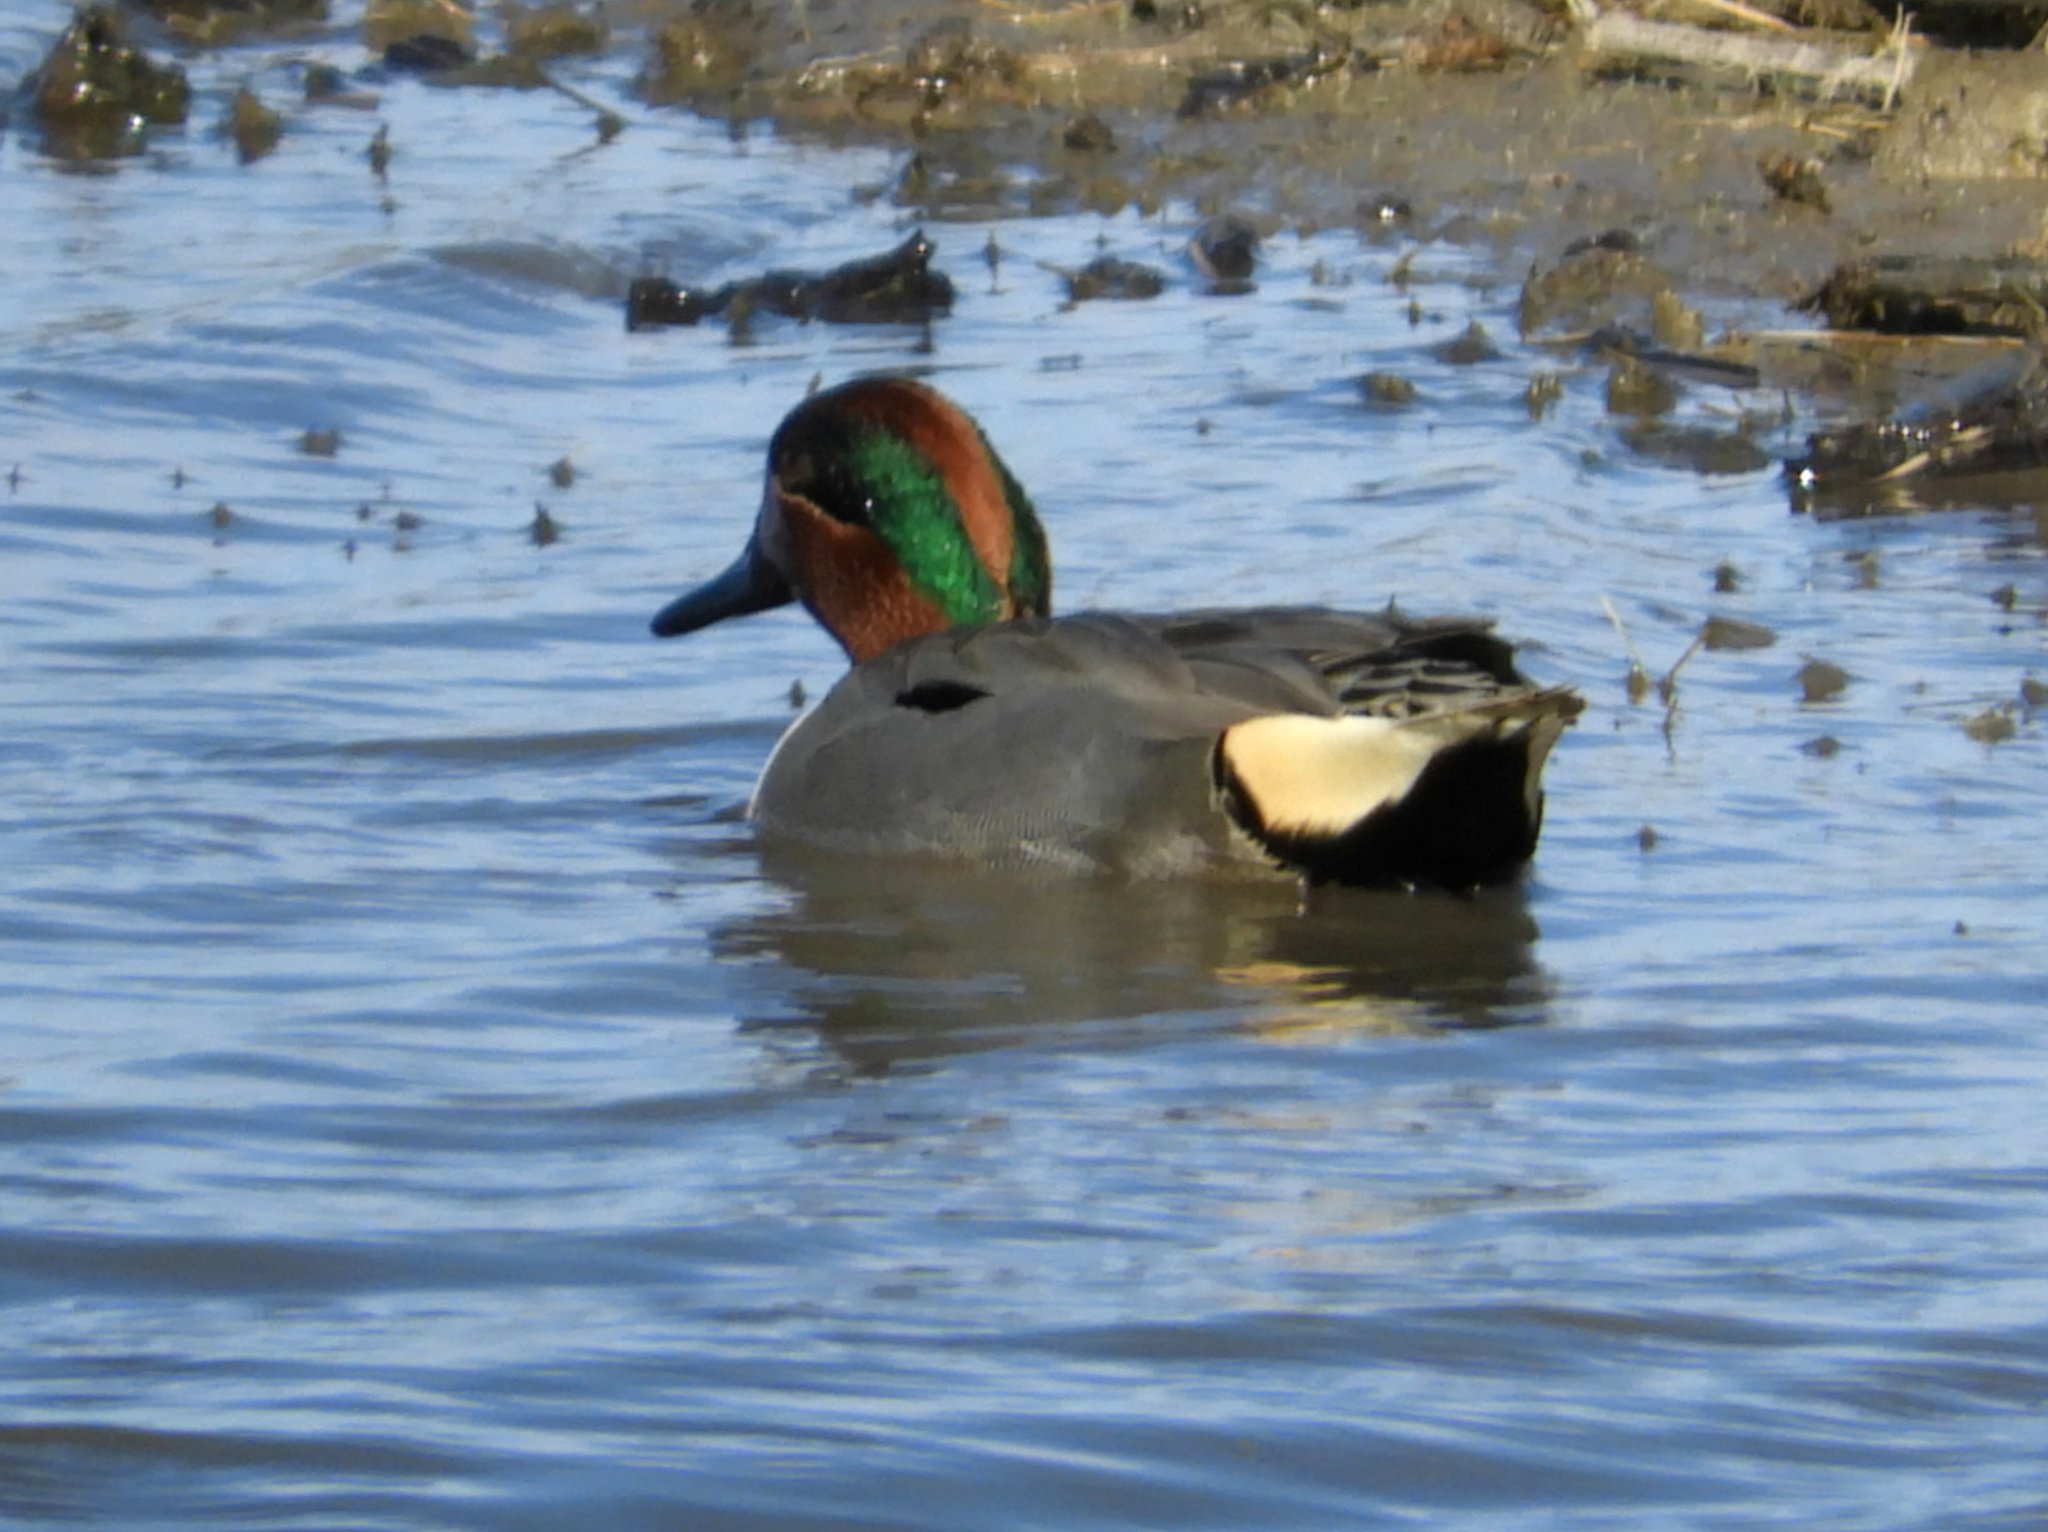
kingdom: Animalia
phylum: Chordata
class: Aves
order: Anseriformes
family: Anatidae
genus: Anas
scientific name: Anas crecca
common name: Eurasian teal
